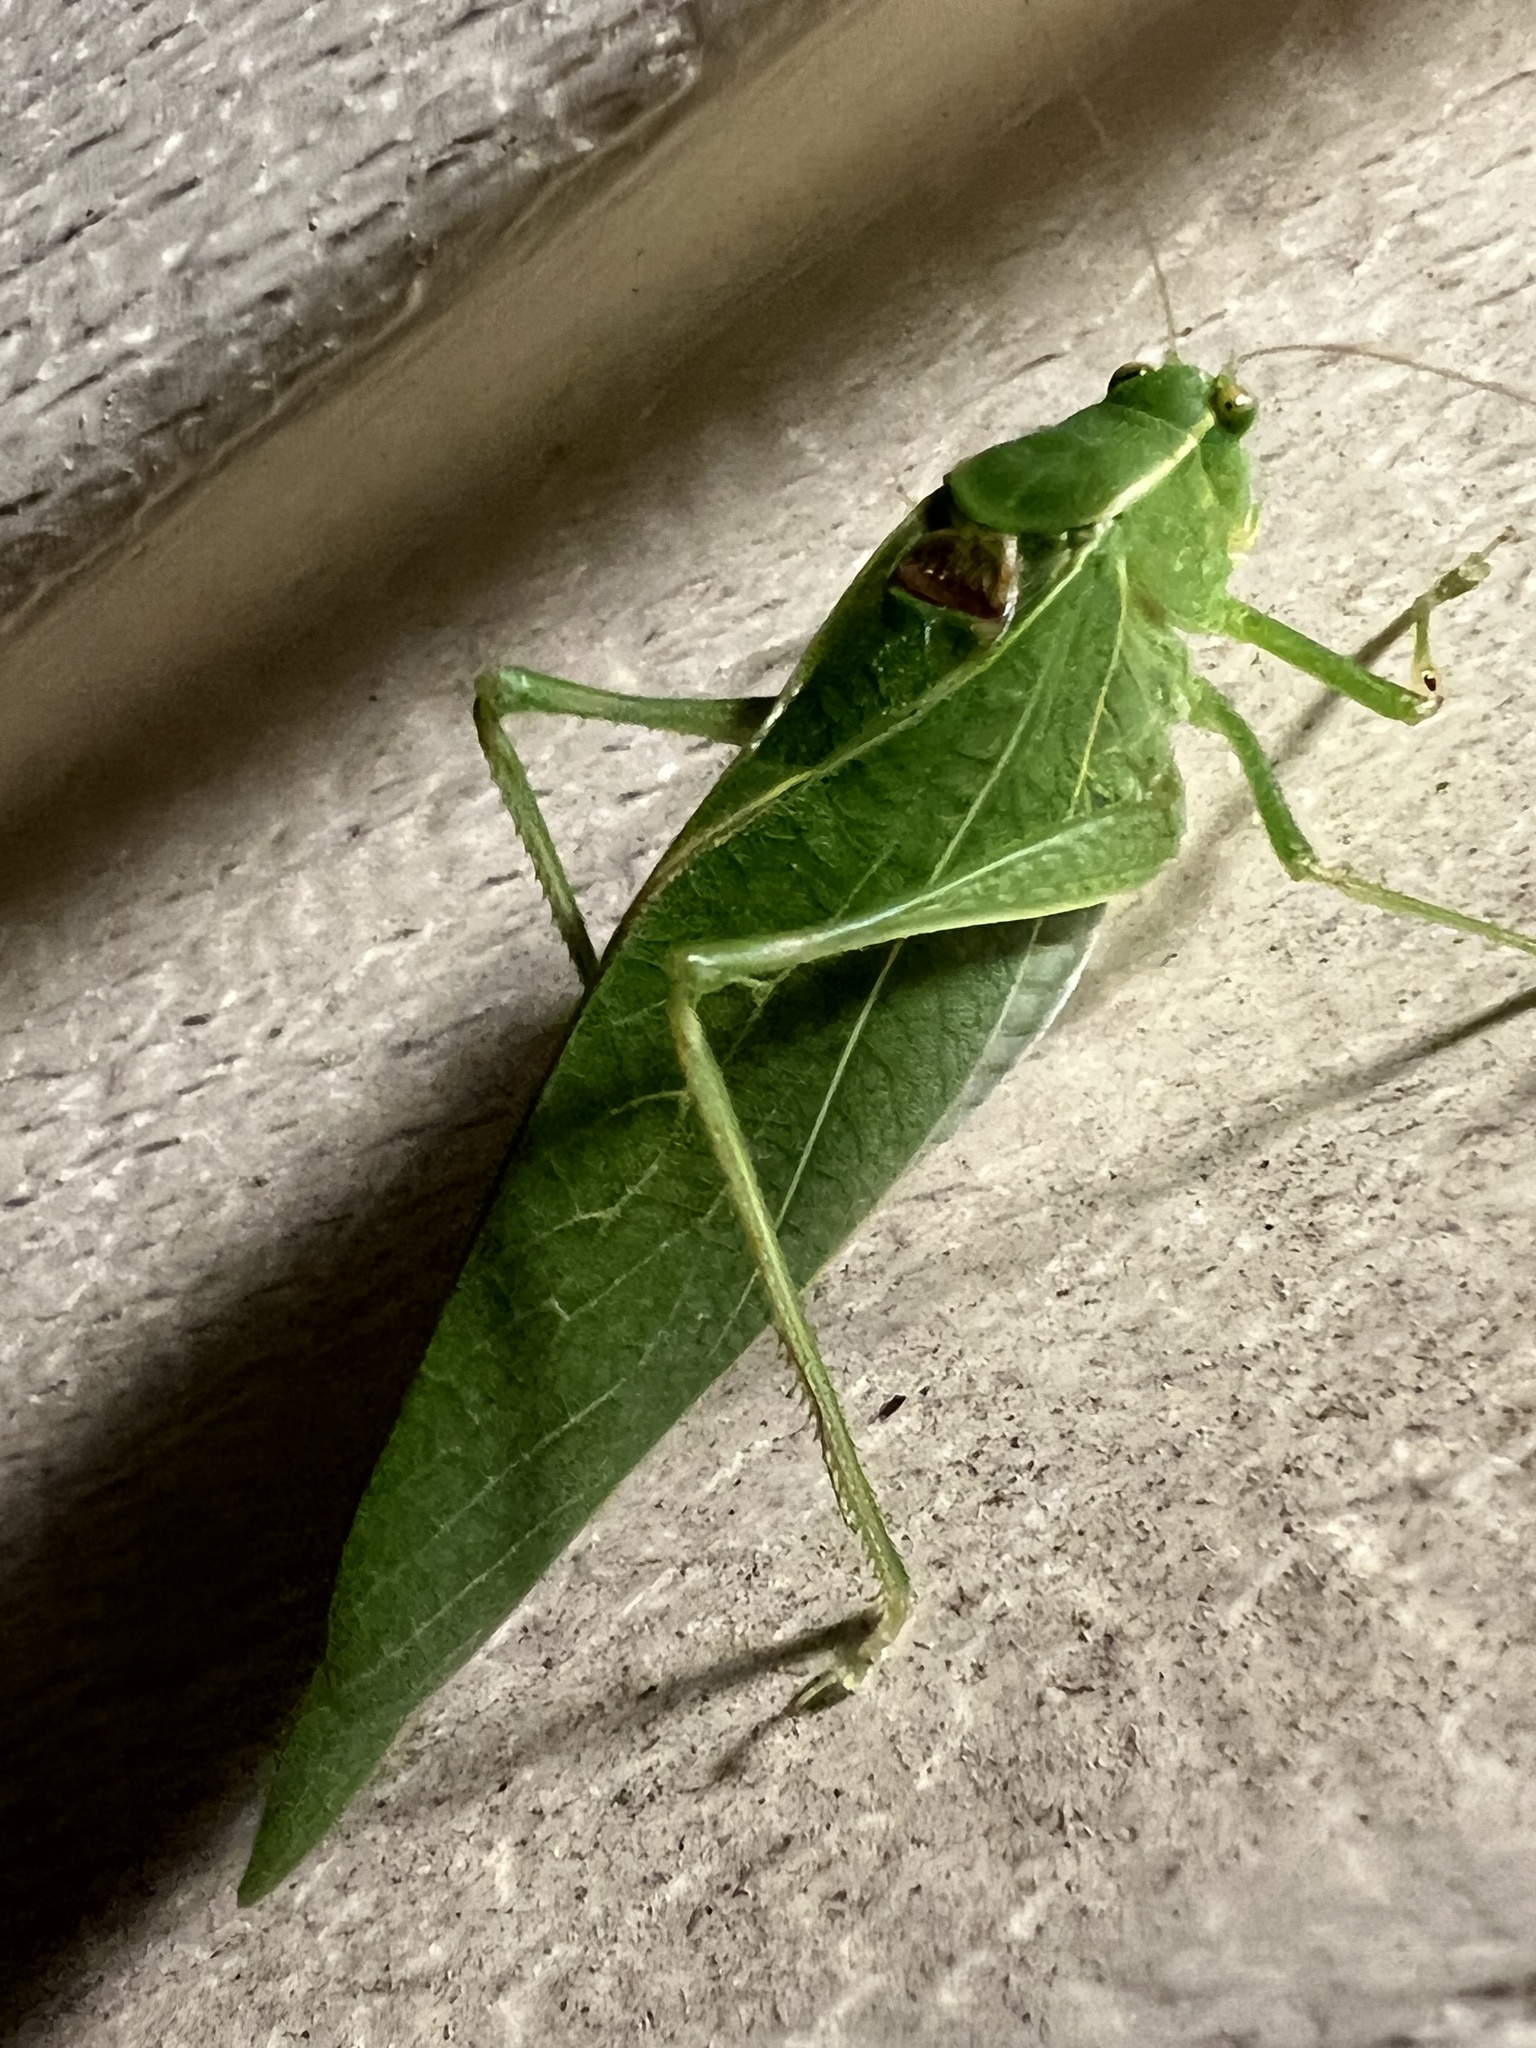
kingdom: Animalia
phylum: Arthropoda
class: Insecta
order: Orthoptera
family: Tettigoniidae
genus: Microcentrum
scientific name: Microcentrum retinerve
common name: Angular-winged katydid
